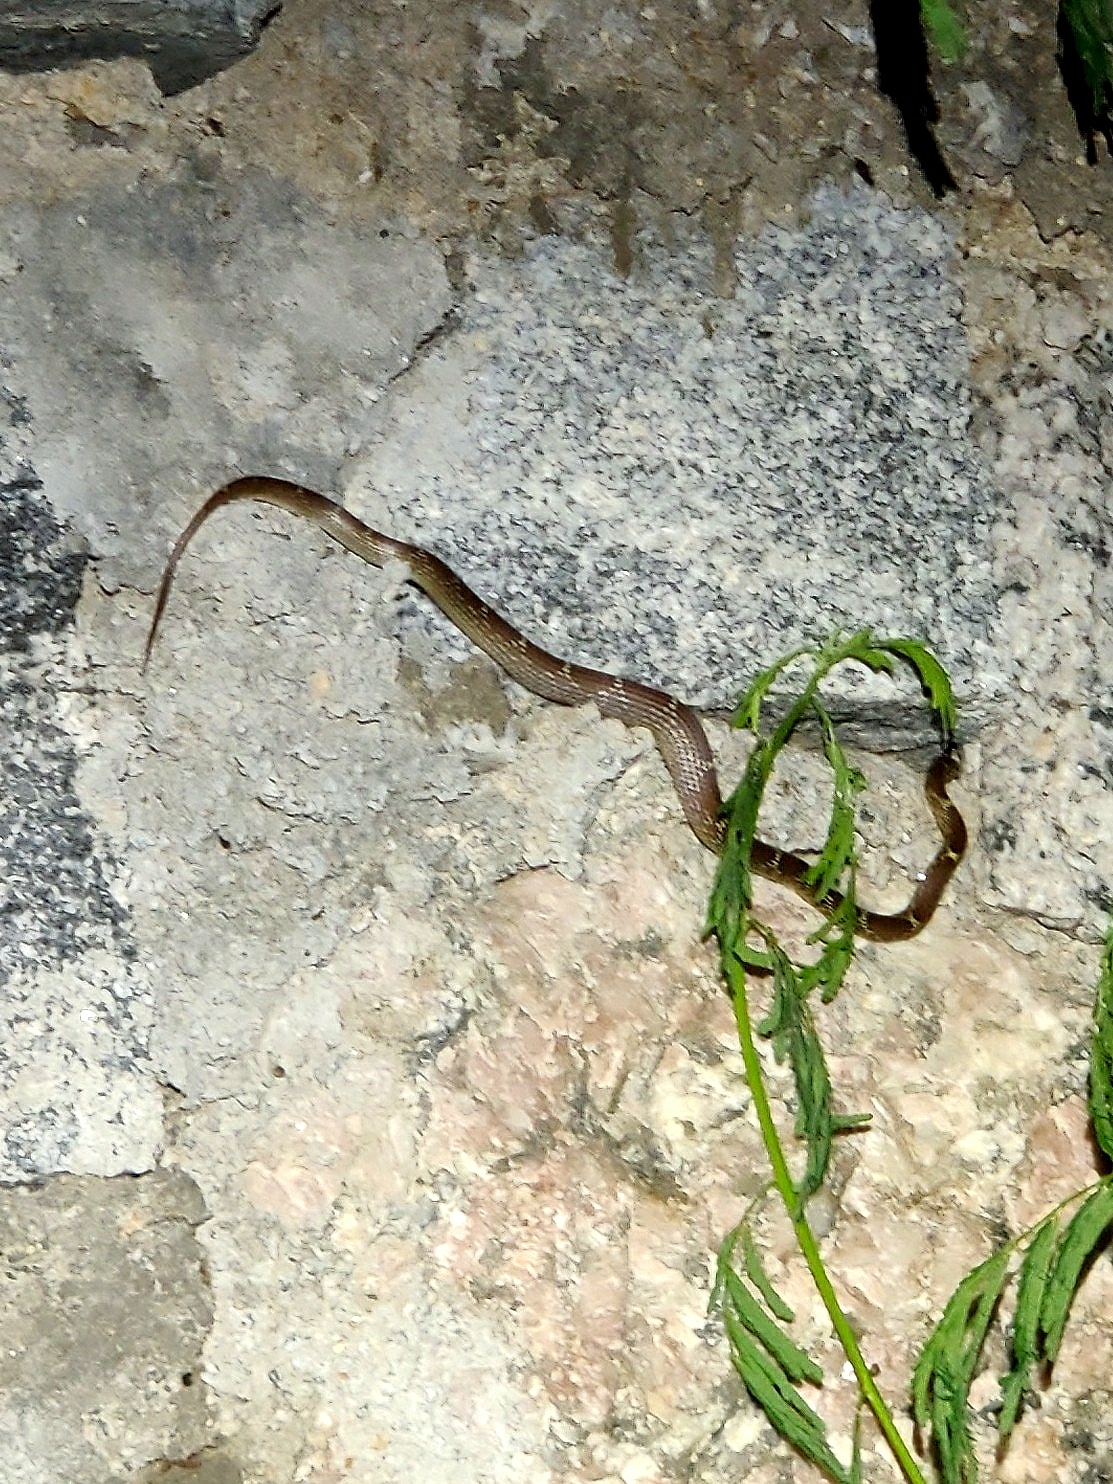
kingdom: Animalia
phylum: Chordata
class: Squamata
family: Colubridae
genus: Lycodon
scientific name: Lycodon fasciolatus
